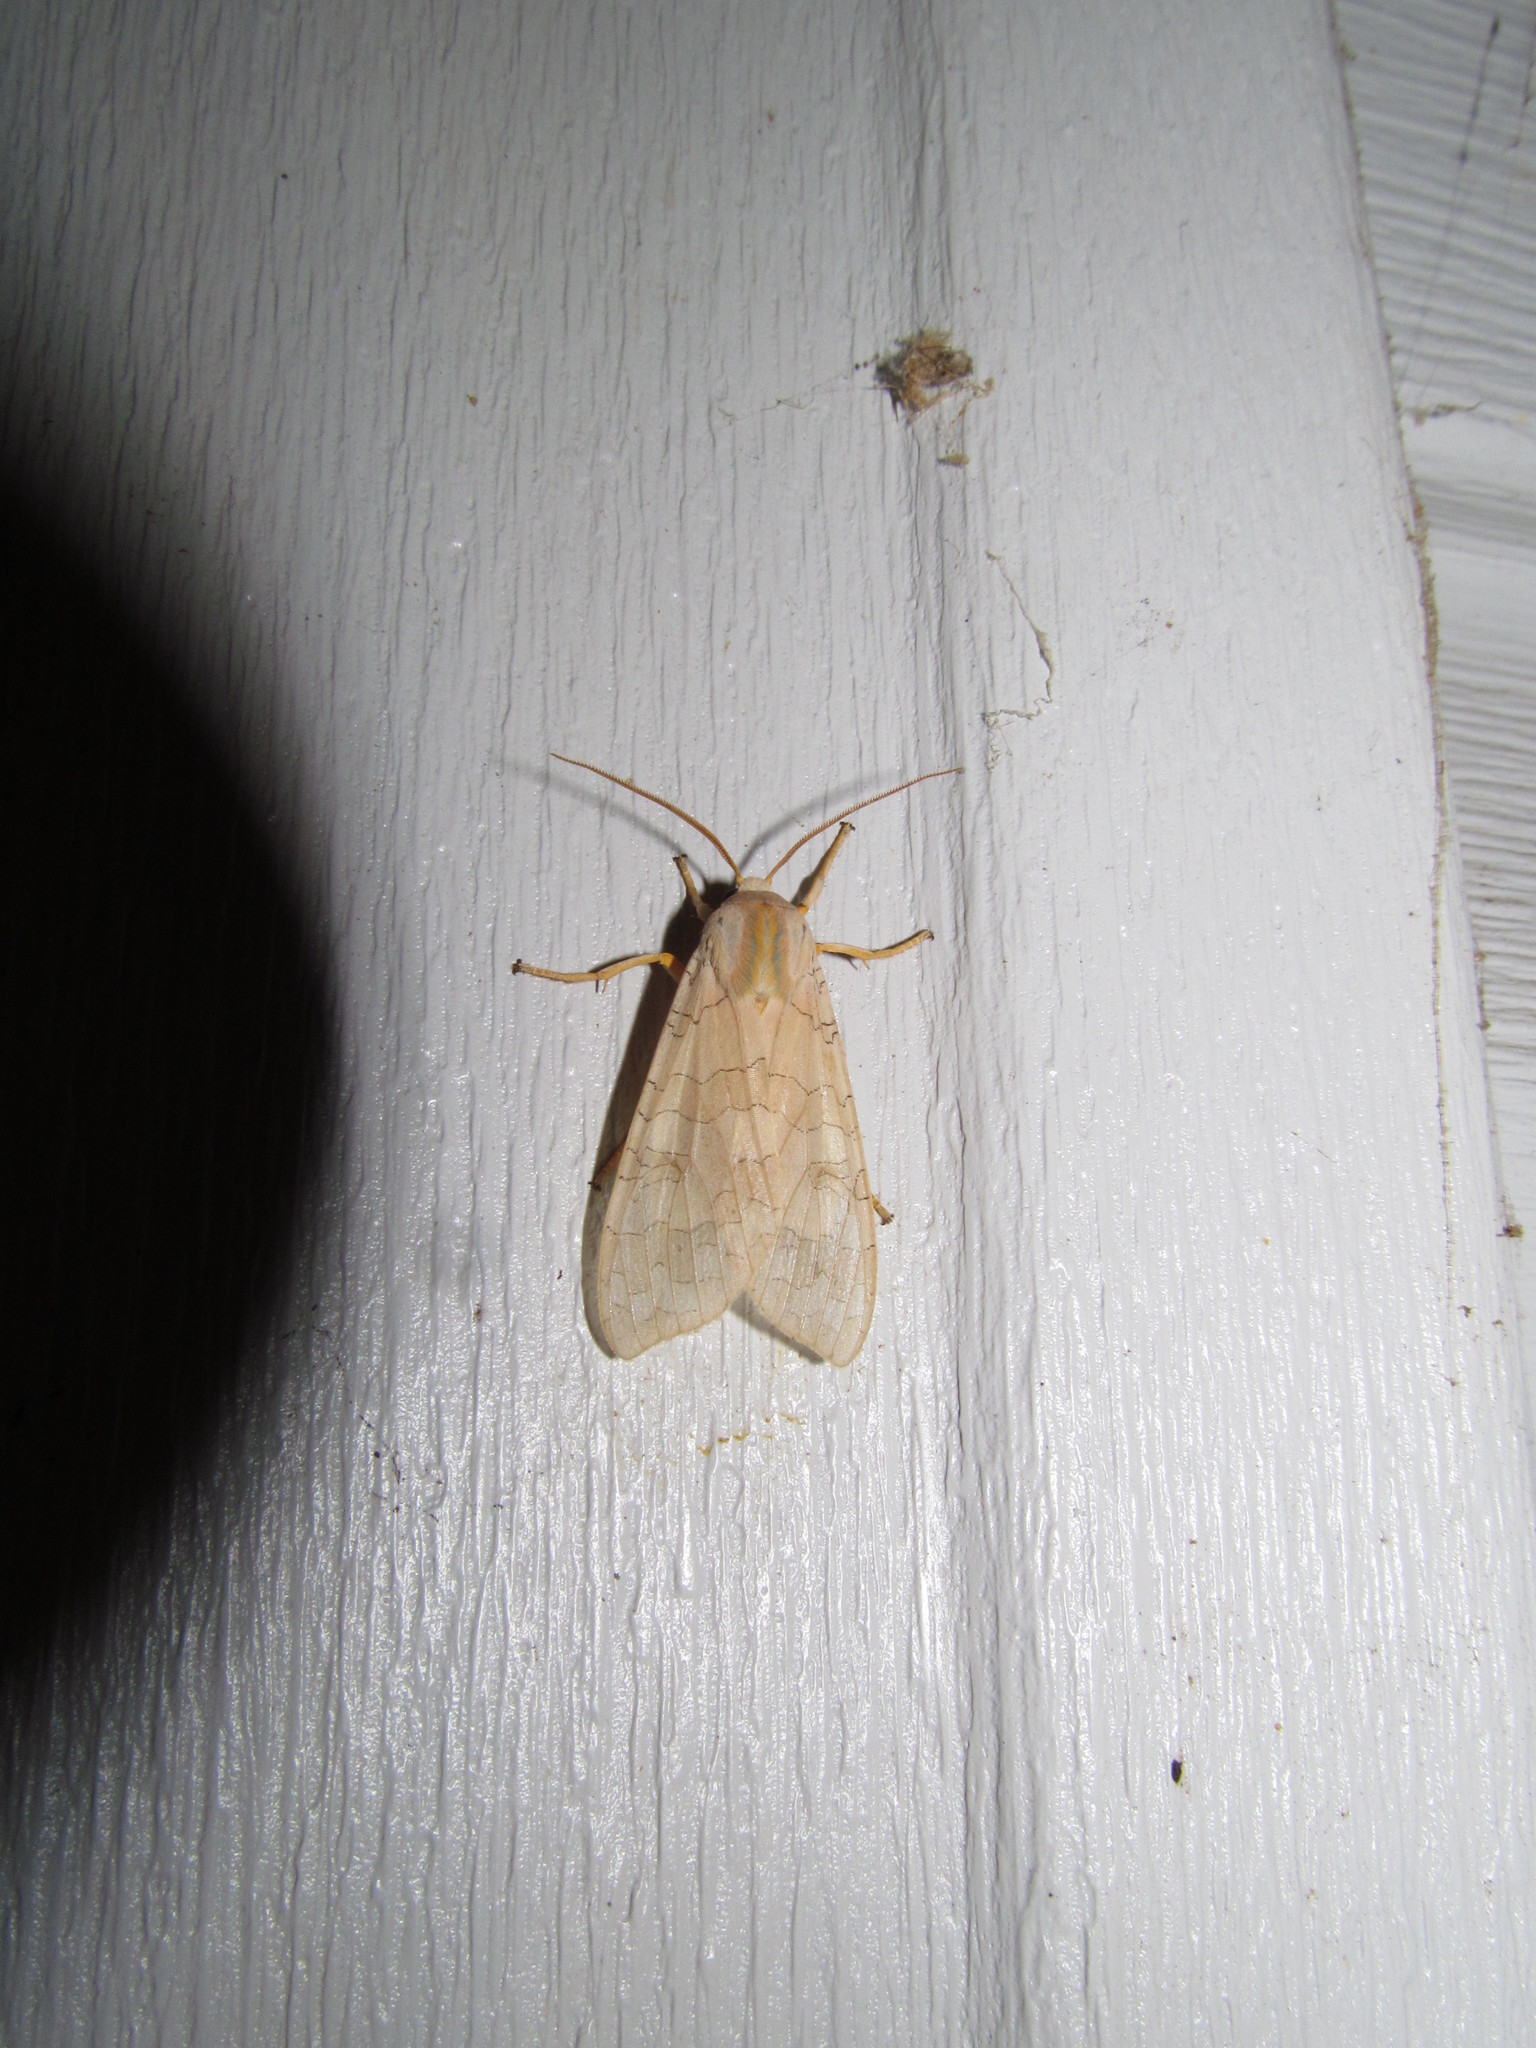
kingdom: Animalia
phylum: Arthropoda
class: Insecta
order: Lepidoptera
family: Erebidae
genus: Halysidota
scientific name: Halysidota
